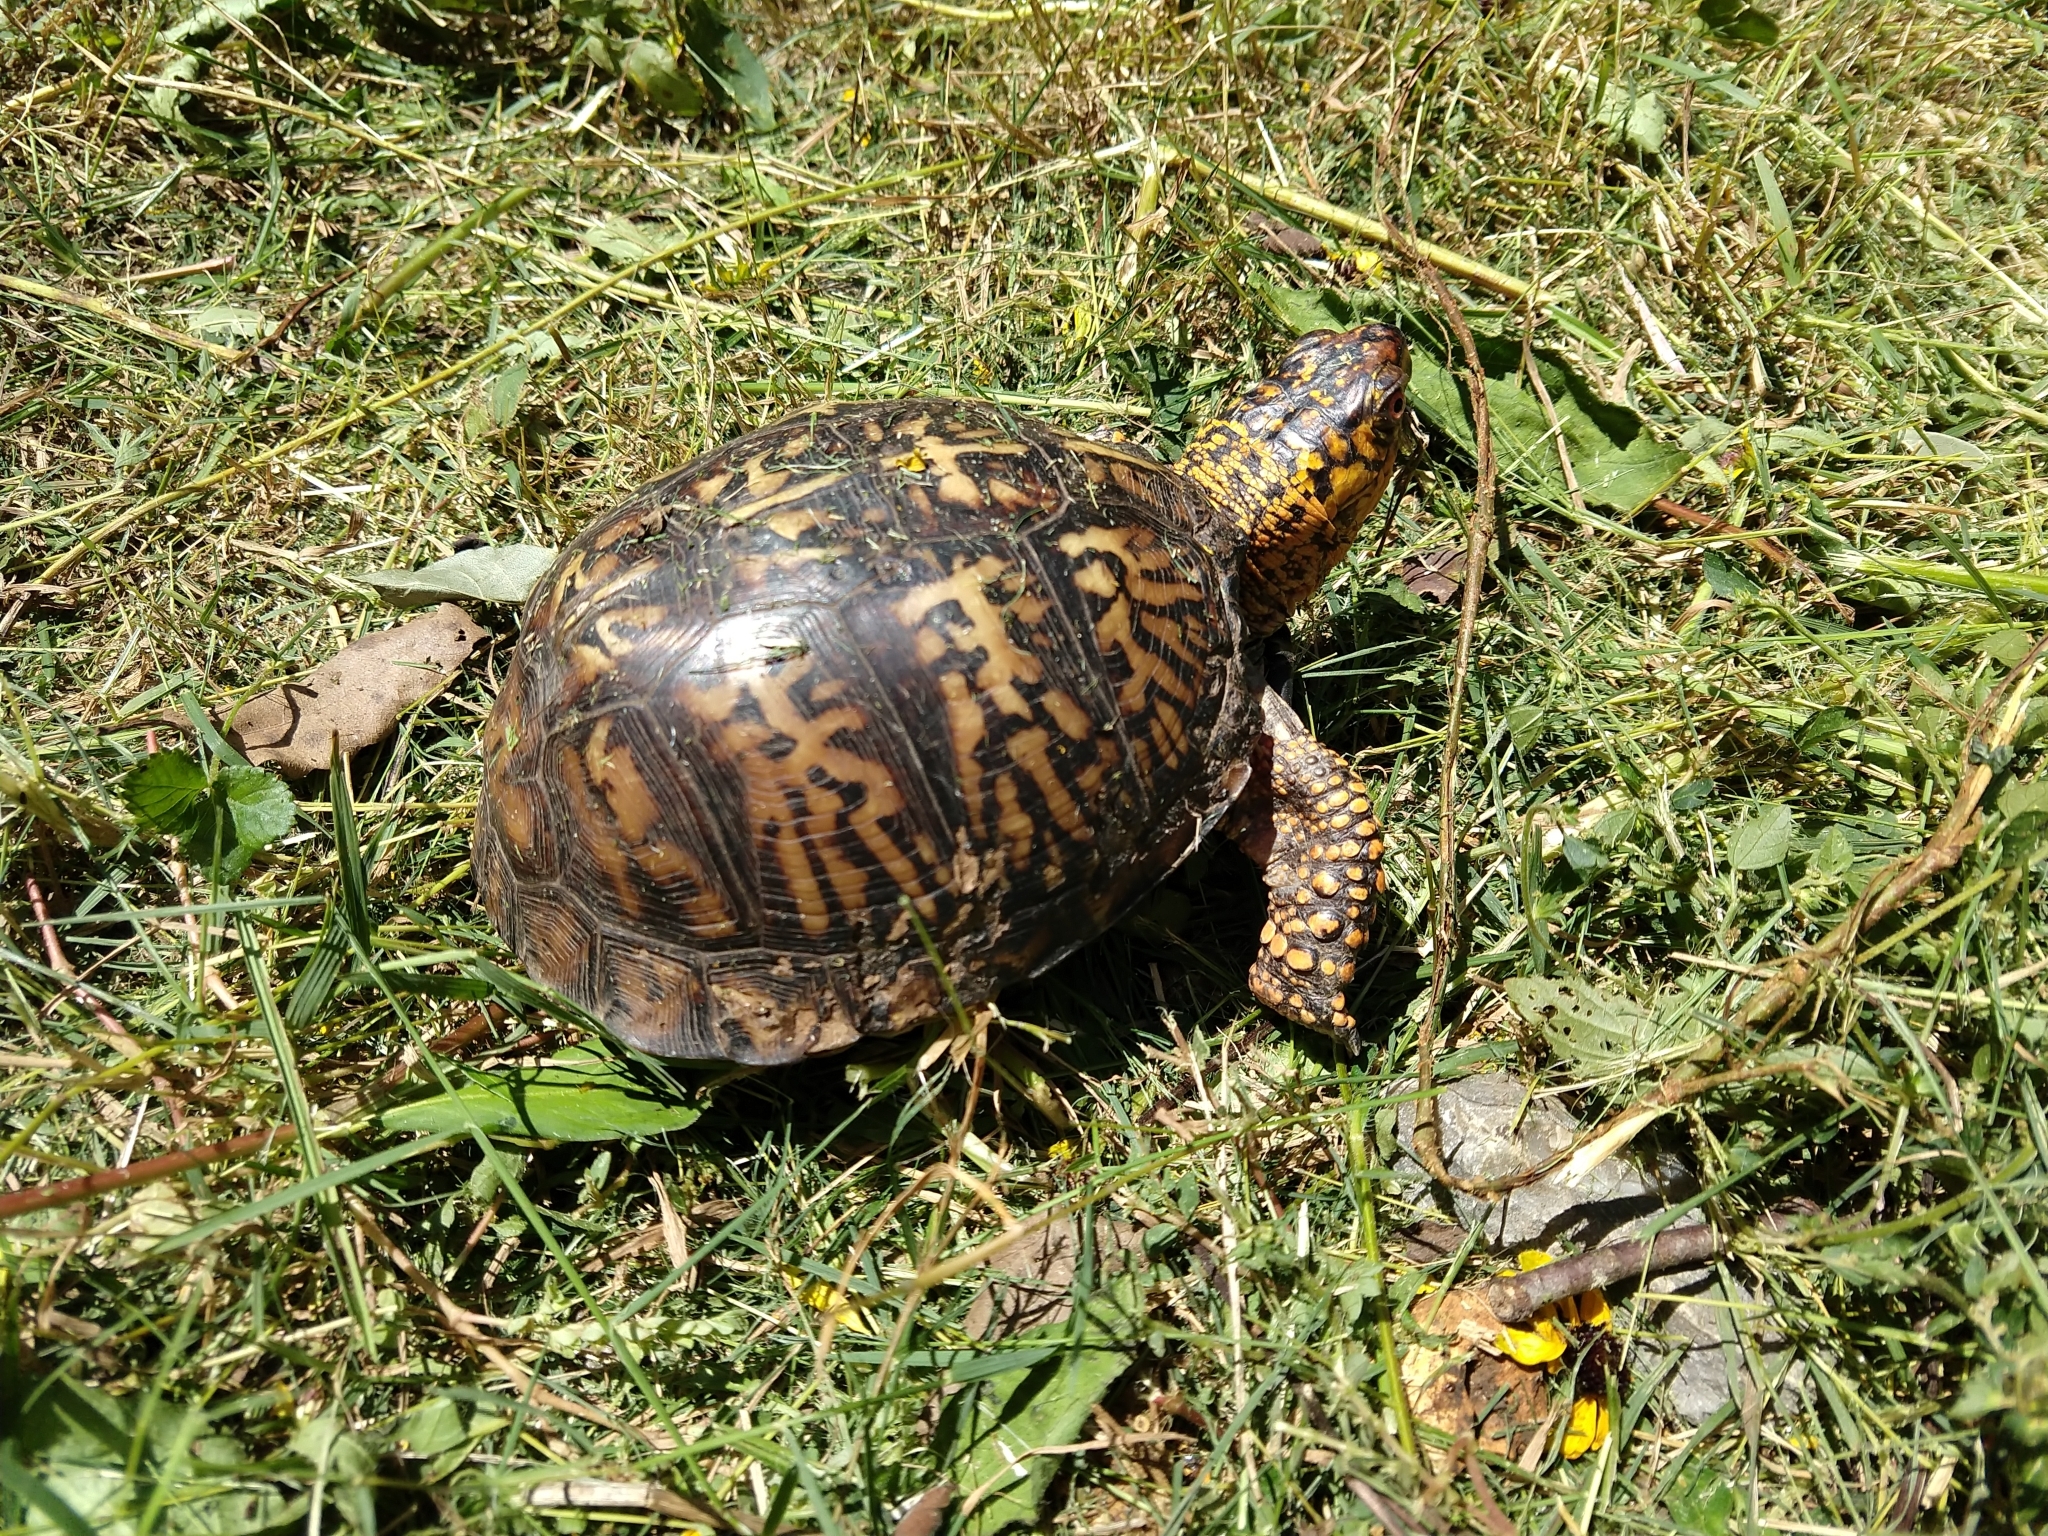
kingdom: Animalia
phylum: Chordata
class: Testudines
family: Emydidae
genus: Terrapene
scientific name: Terrapene carolina
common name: Common box turtle
